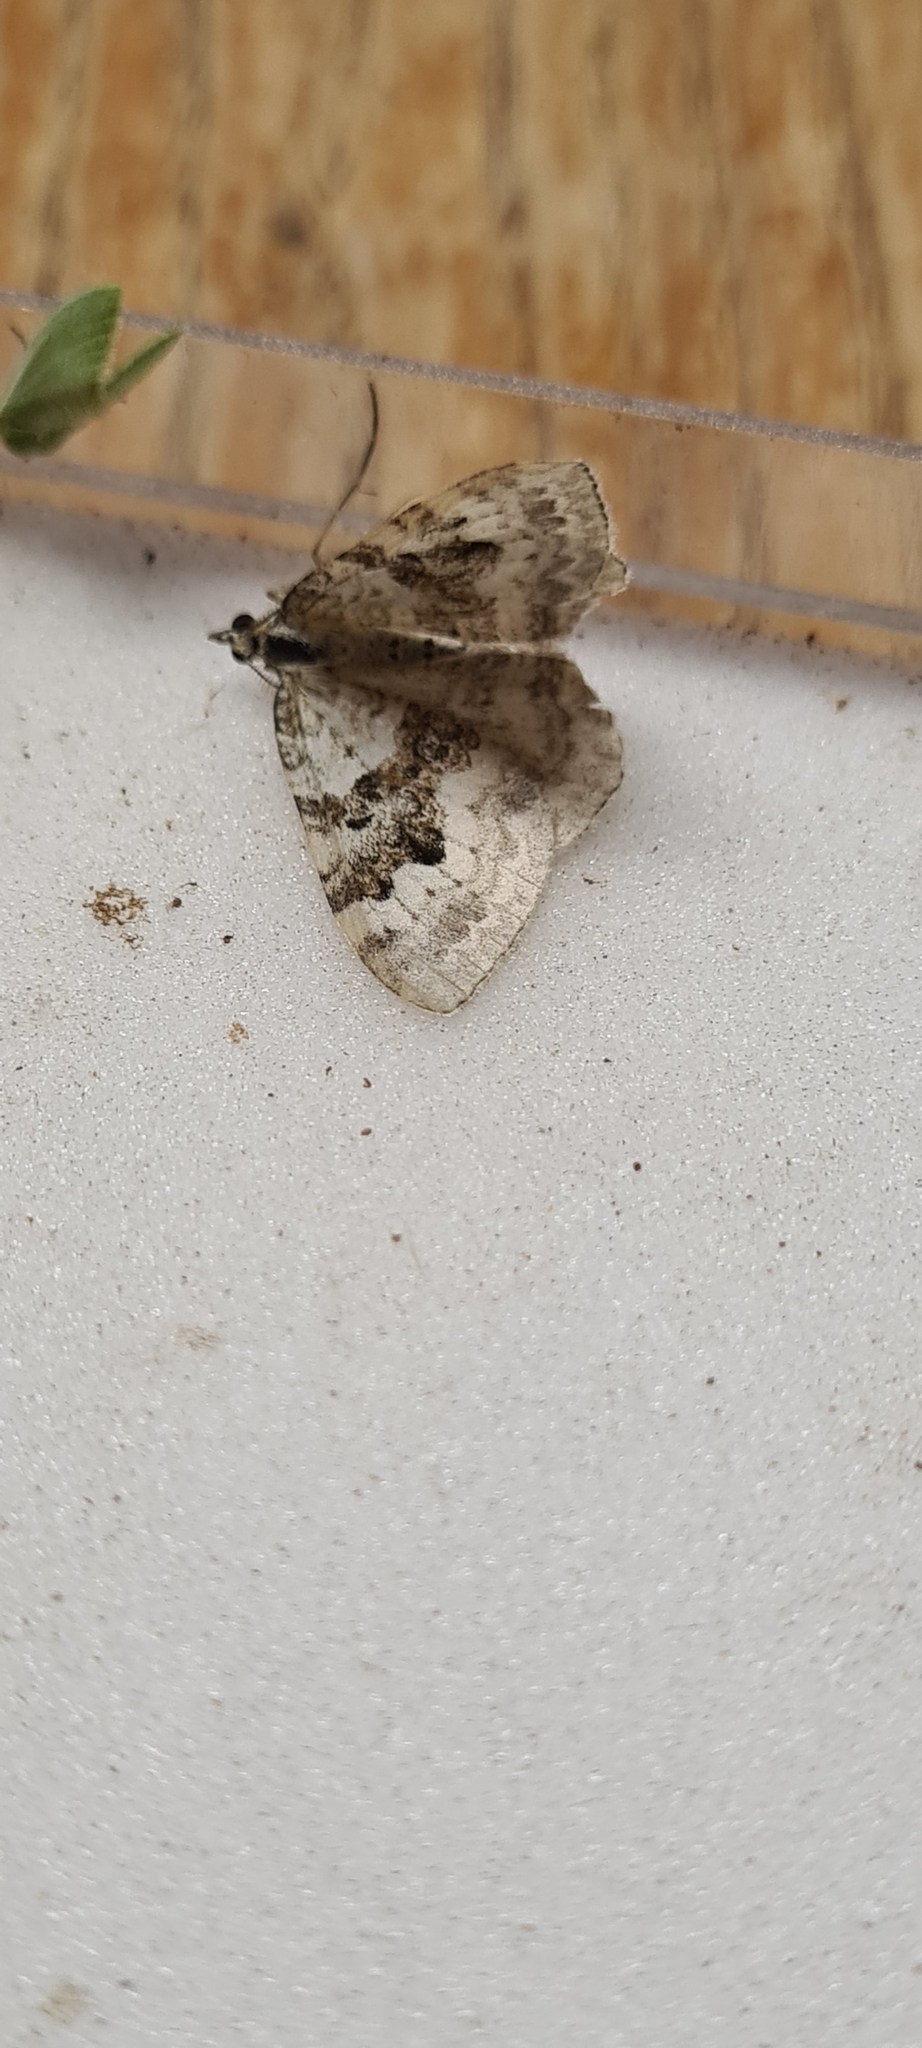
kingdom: Animalia
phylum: Arthropoda
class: Insecta
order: Lepidoptera
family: Geometridae
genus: Xanthorhoe
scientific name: Xanthorhoe montanata
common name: Silver-ground carpet
